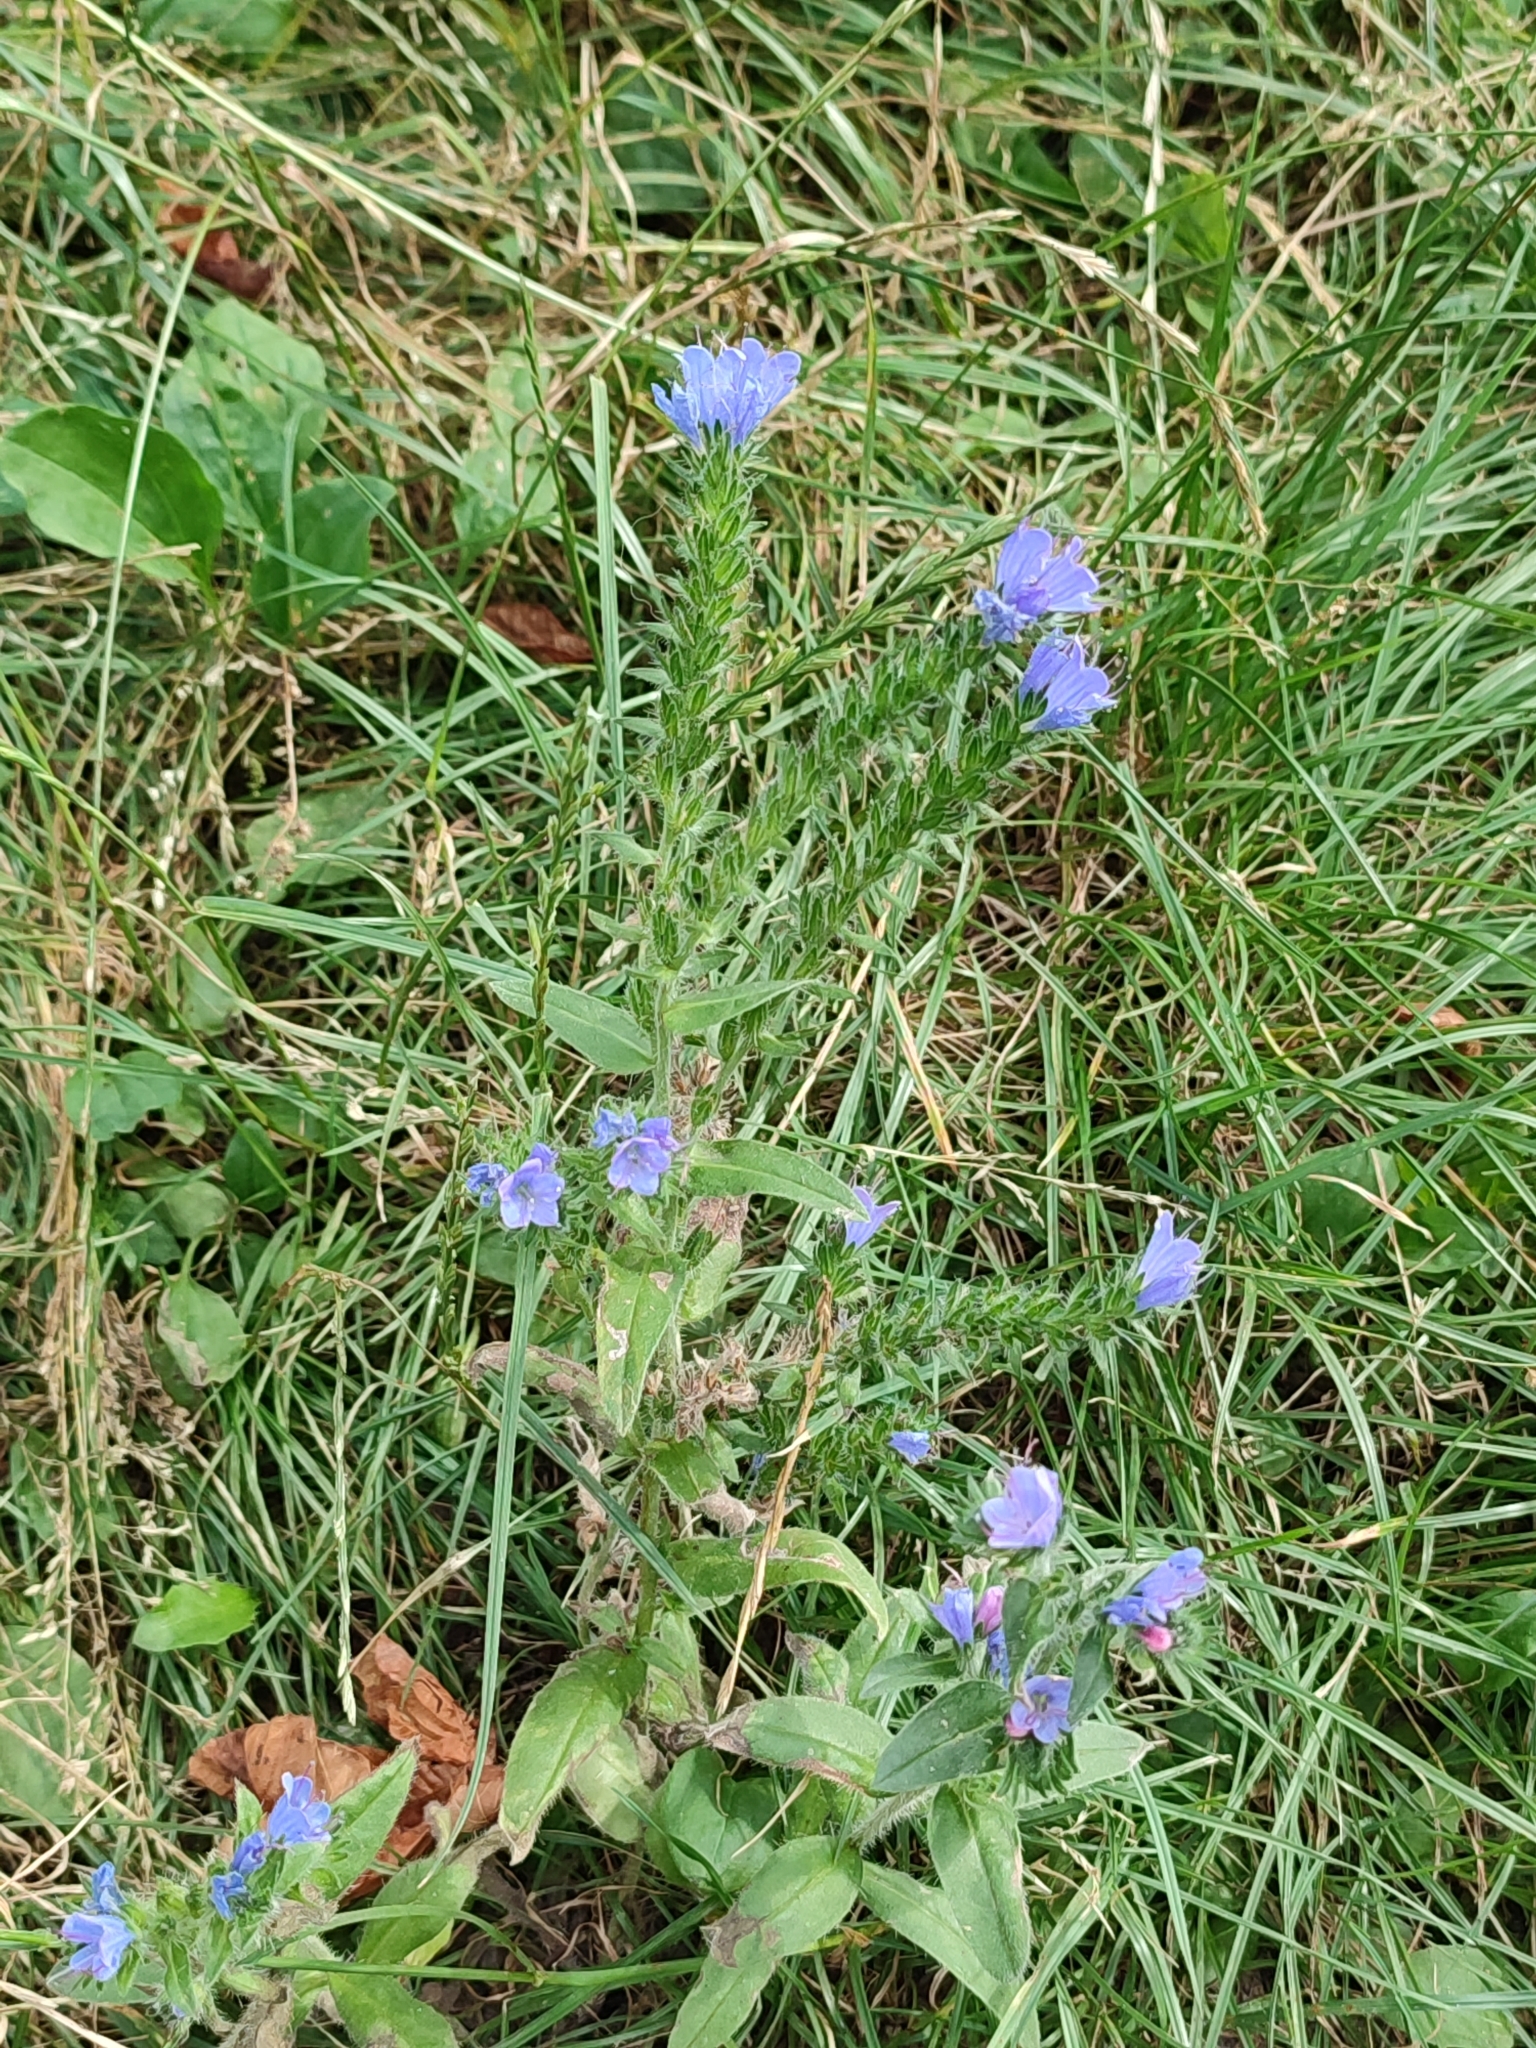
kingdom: Plantae
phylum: Tracheophyta
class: Magnoliopsida
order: Boraginales
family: Boraginaceae
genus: Echium
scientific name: Echium vulgare
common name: Common viper's bugloss
